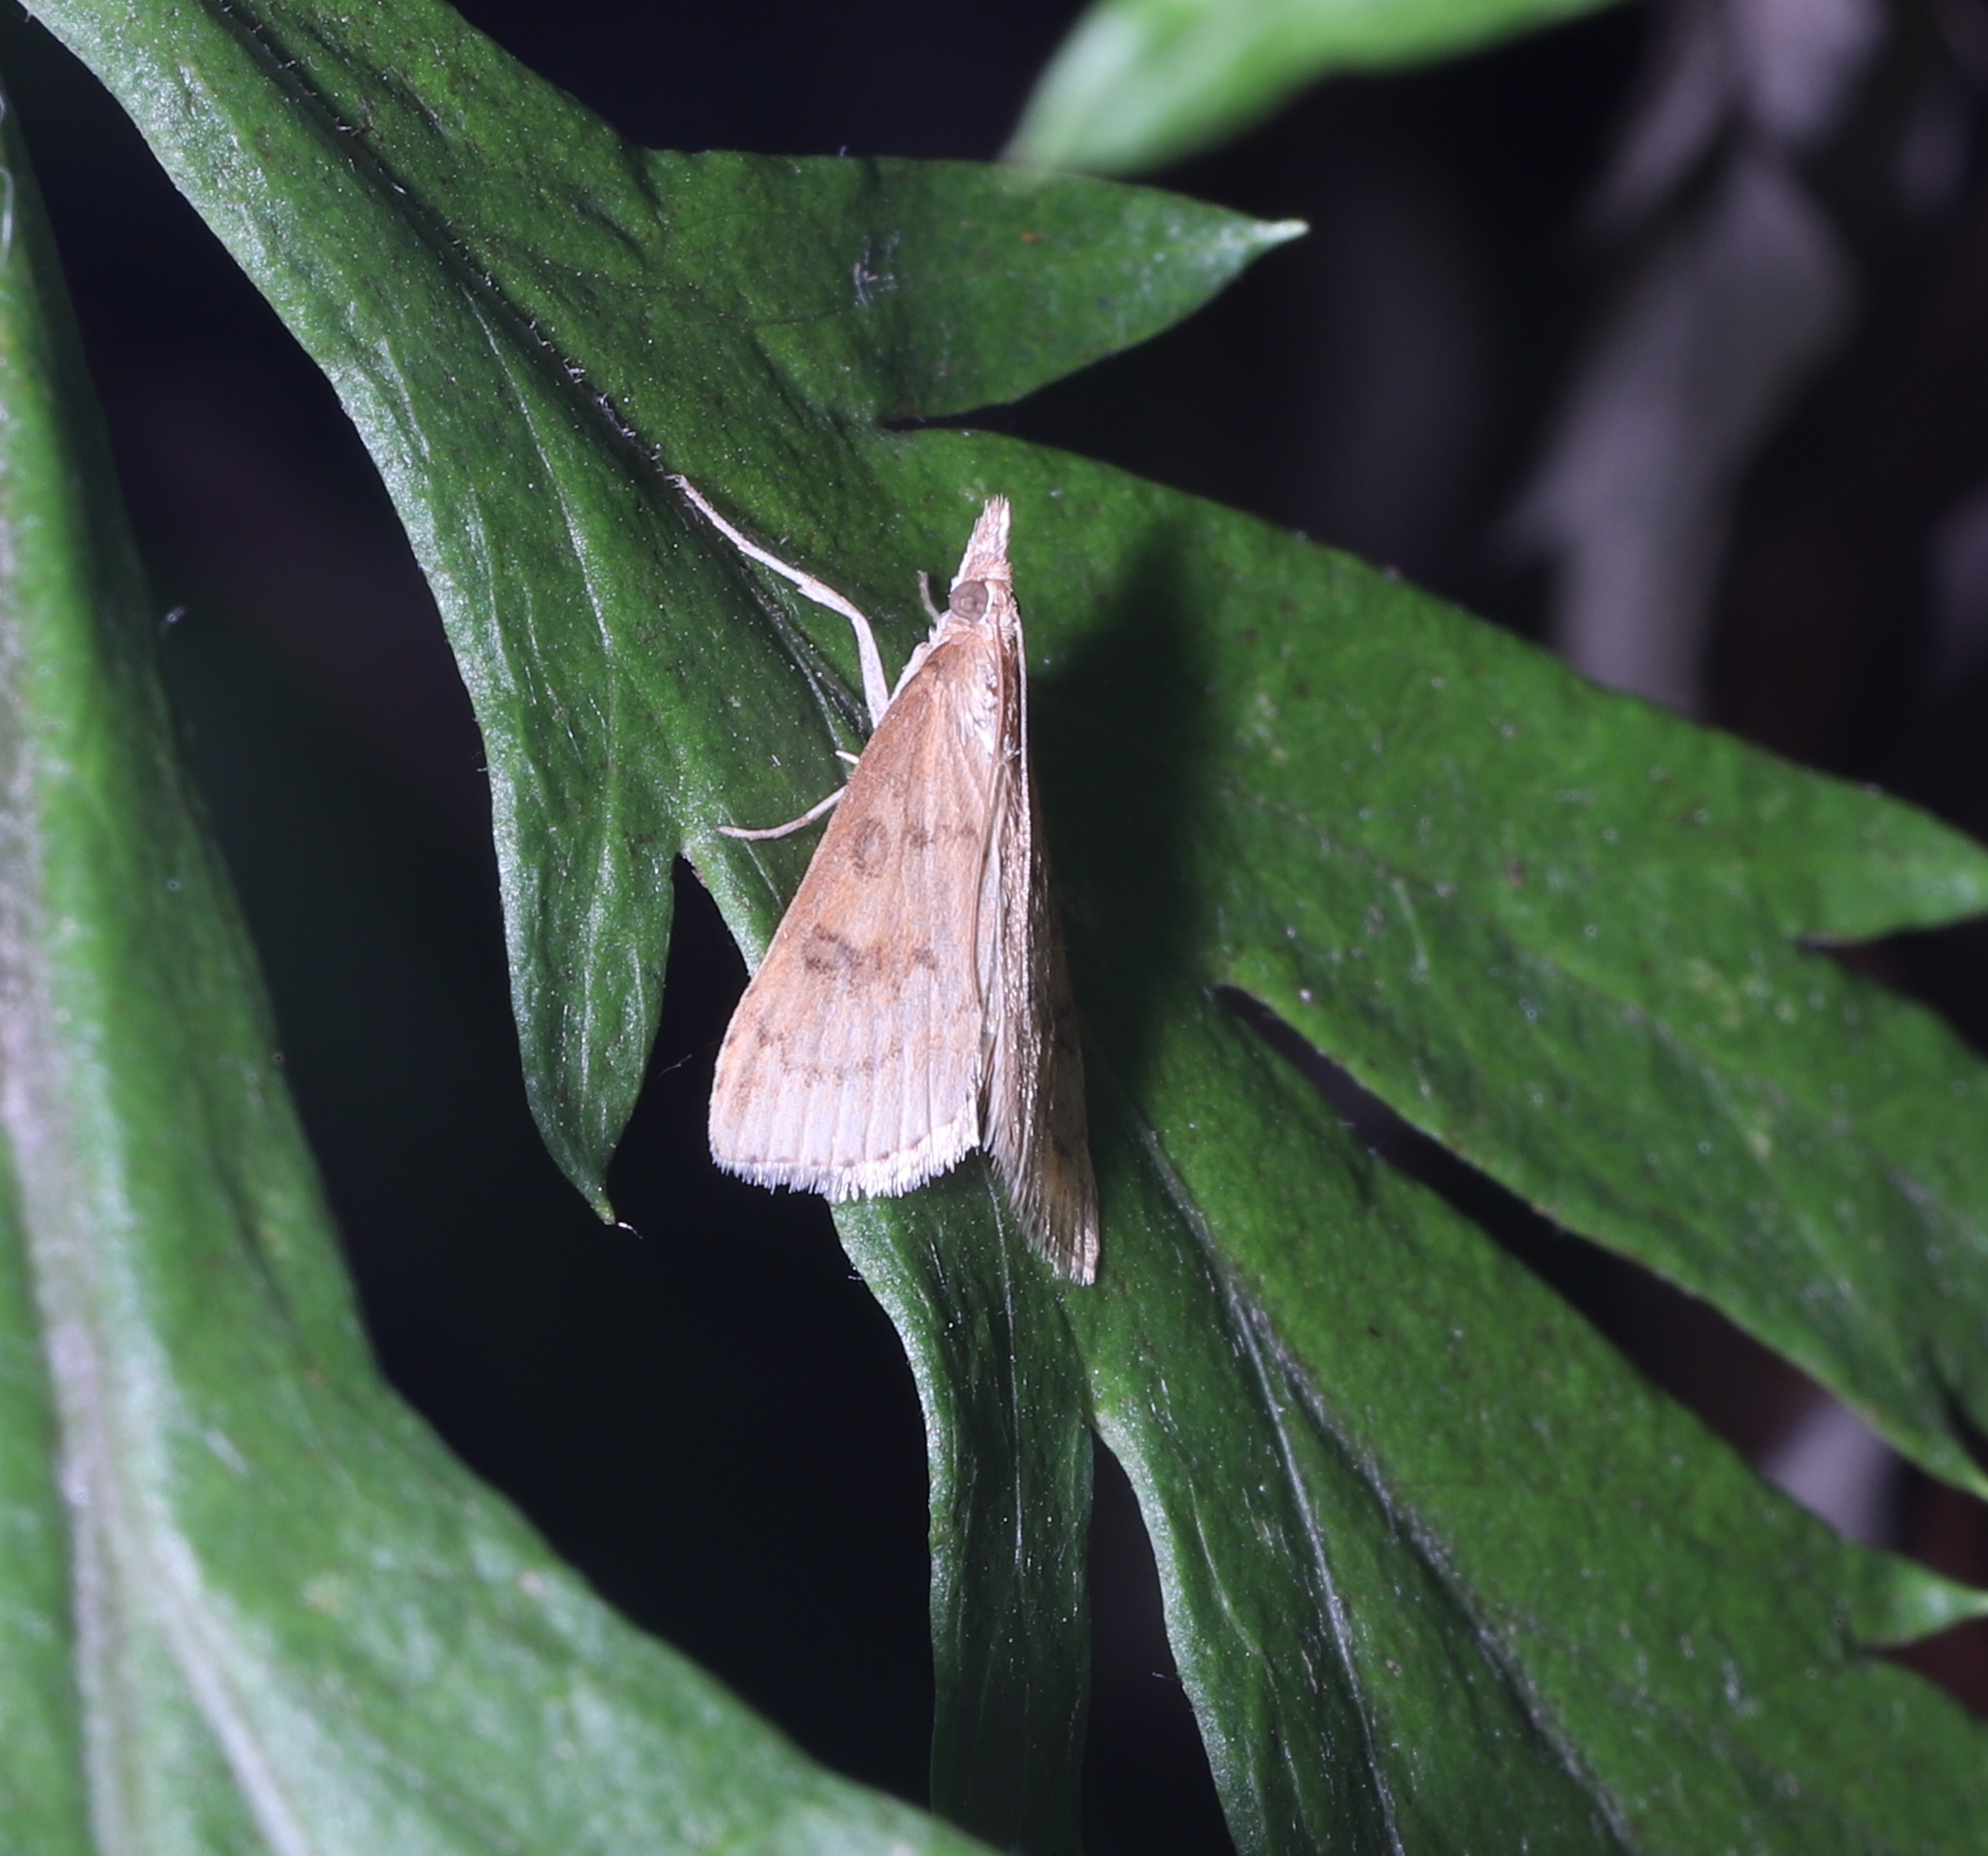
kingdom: Animalia
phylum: Arthropoda
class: Insecta
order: Lepidoptera
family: Crambidae
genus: Udea
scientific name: Udea rubigalis
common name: Celery leaftier moth
